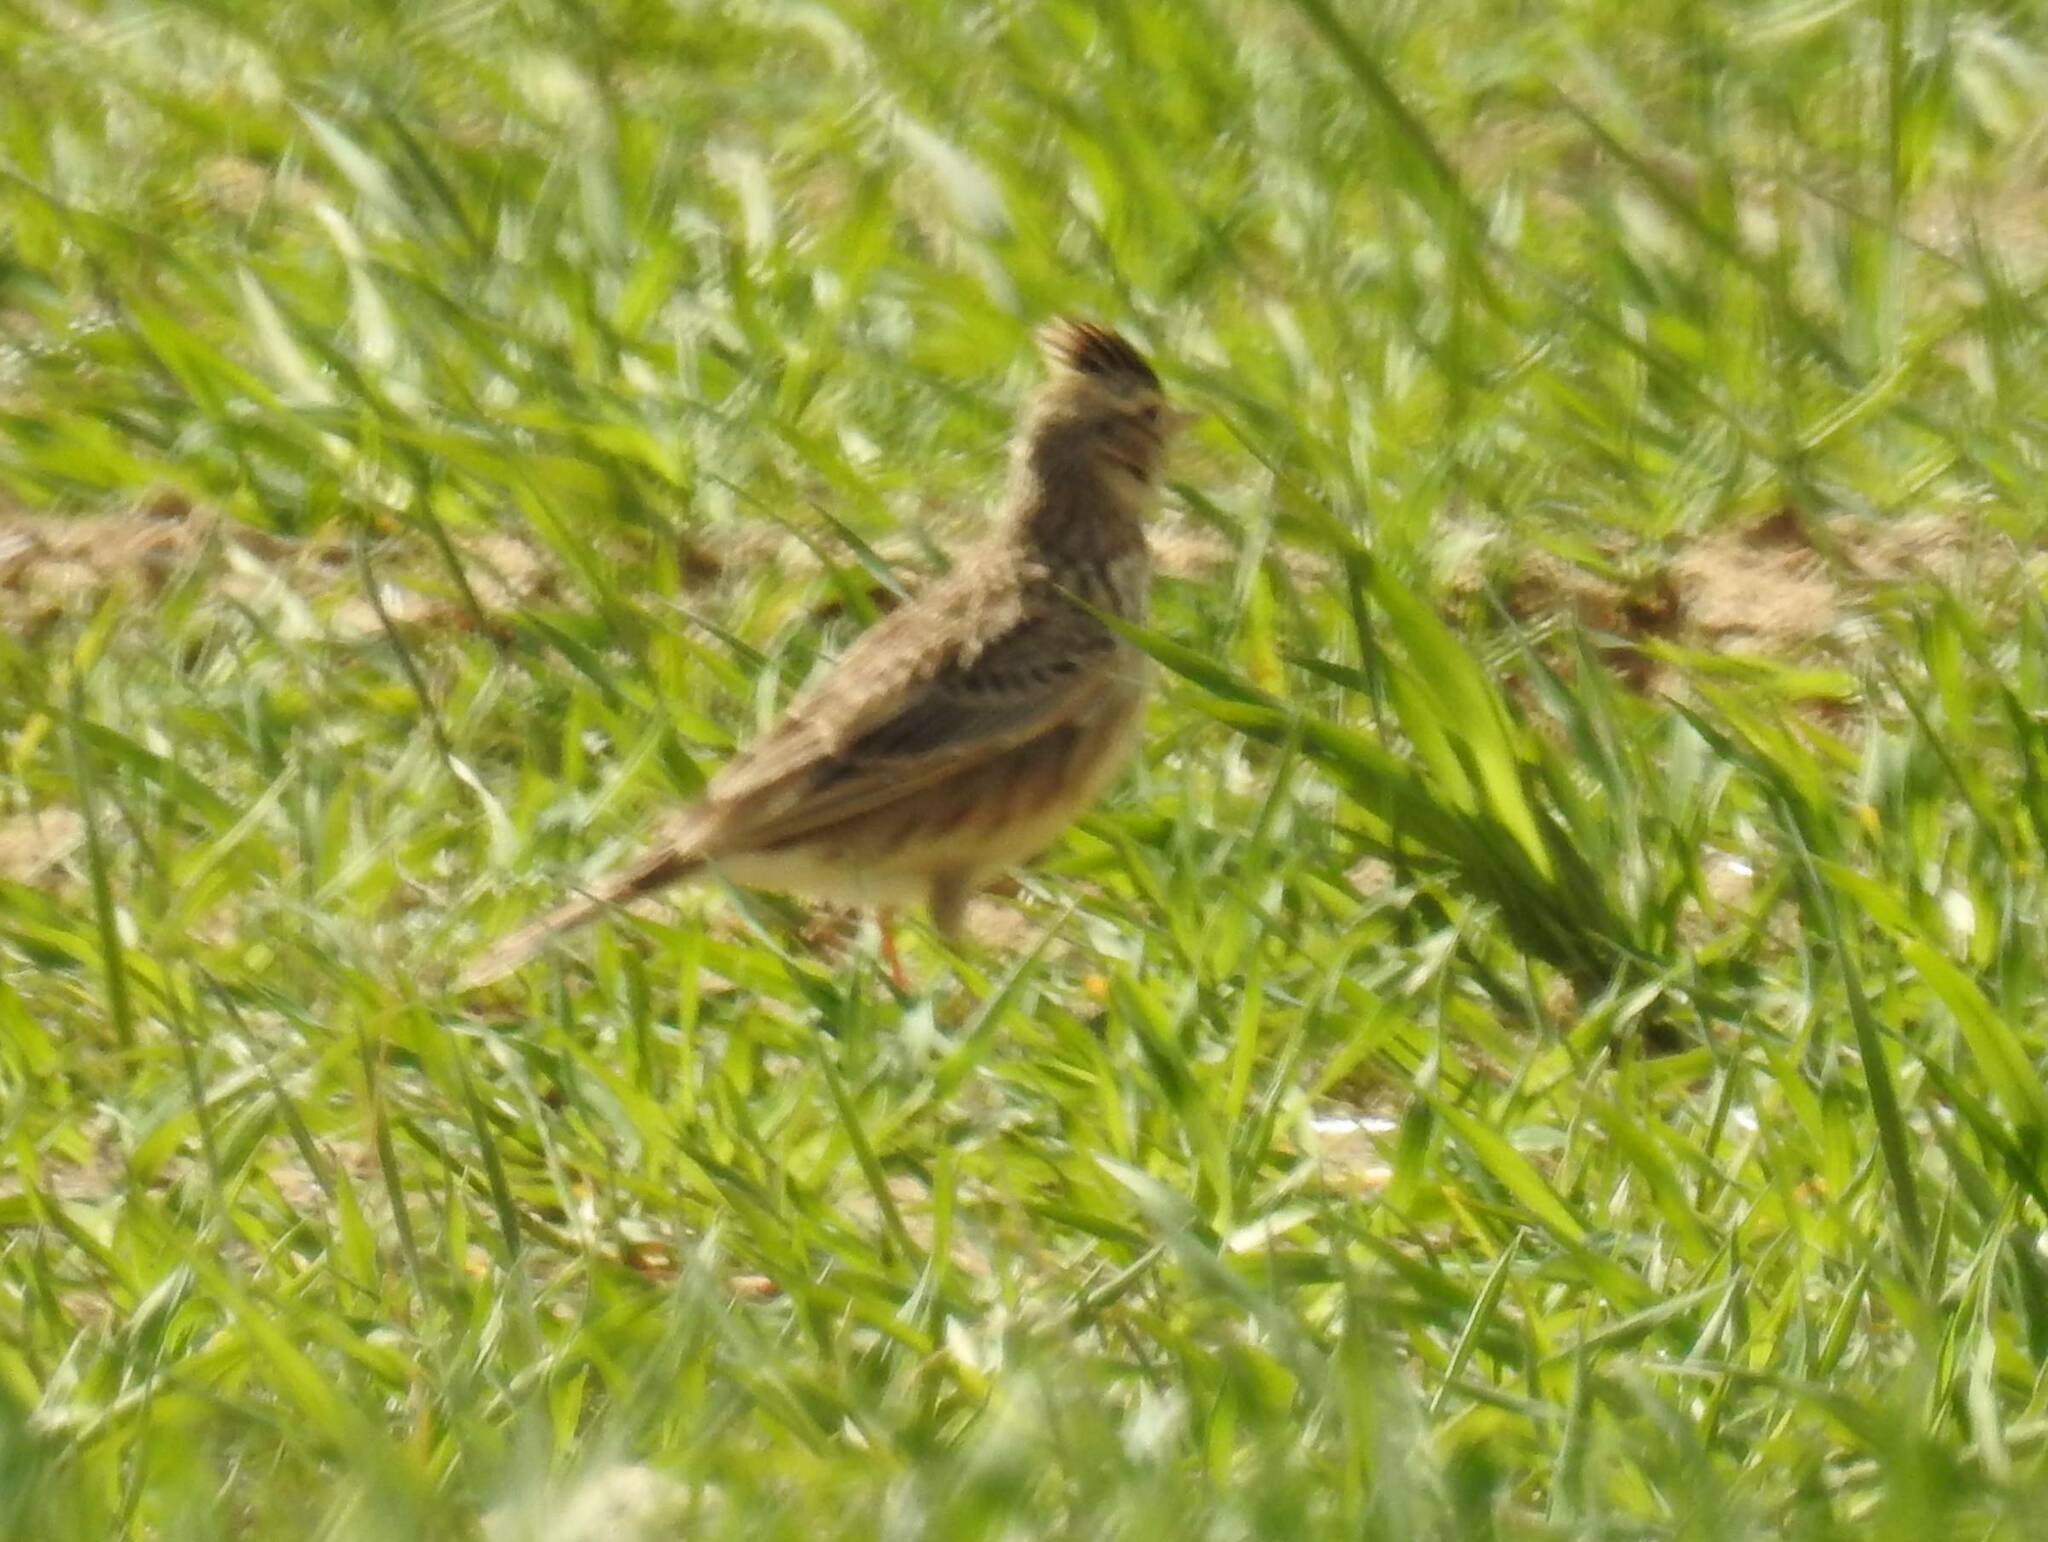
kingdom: Animalia
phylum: Chordata
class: Aves
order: Passeriformes
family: Alaudidae
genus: Galerida
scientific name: Galerida cristata
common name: Crested lark
